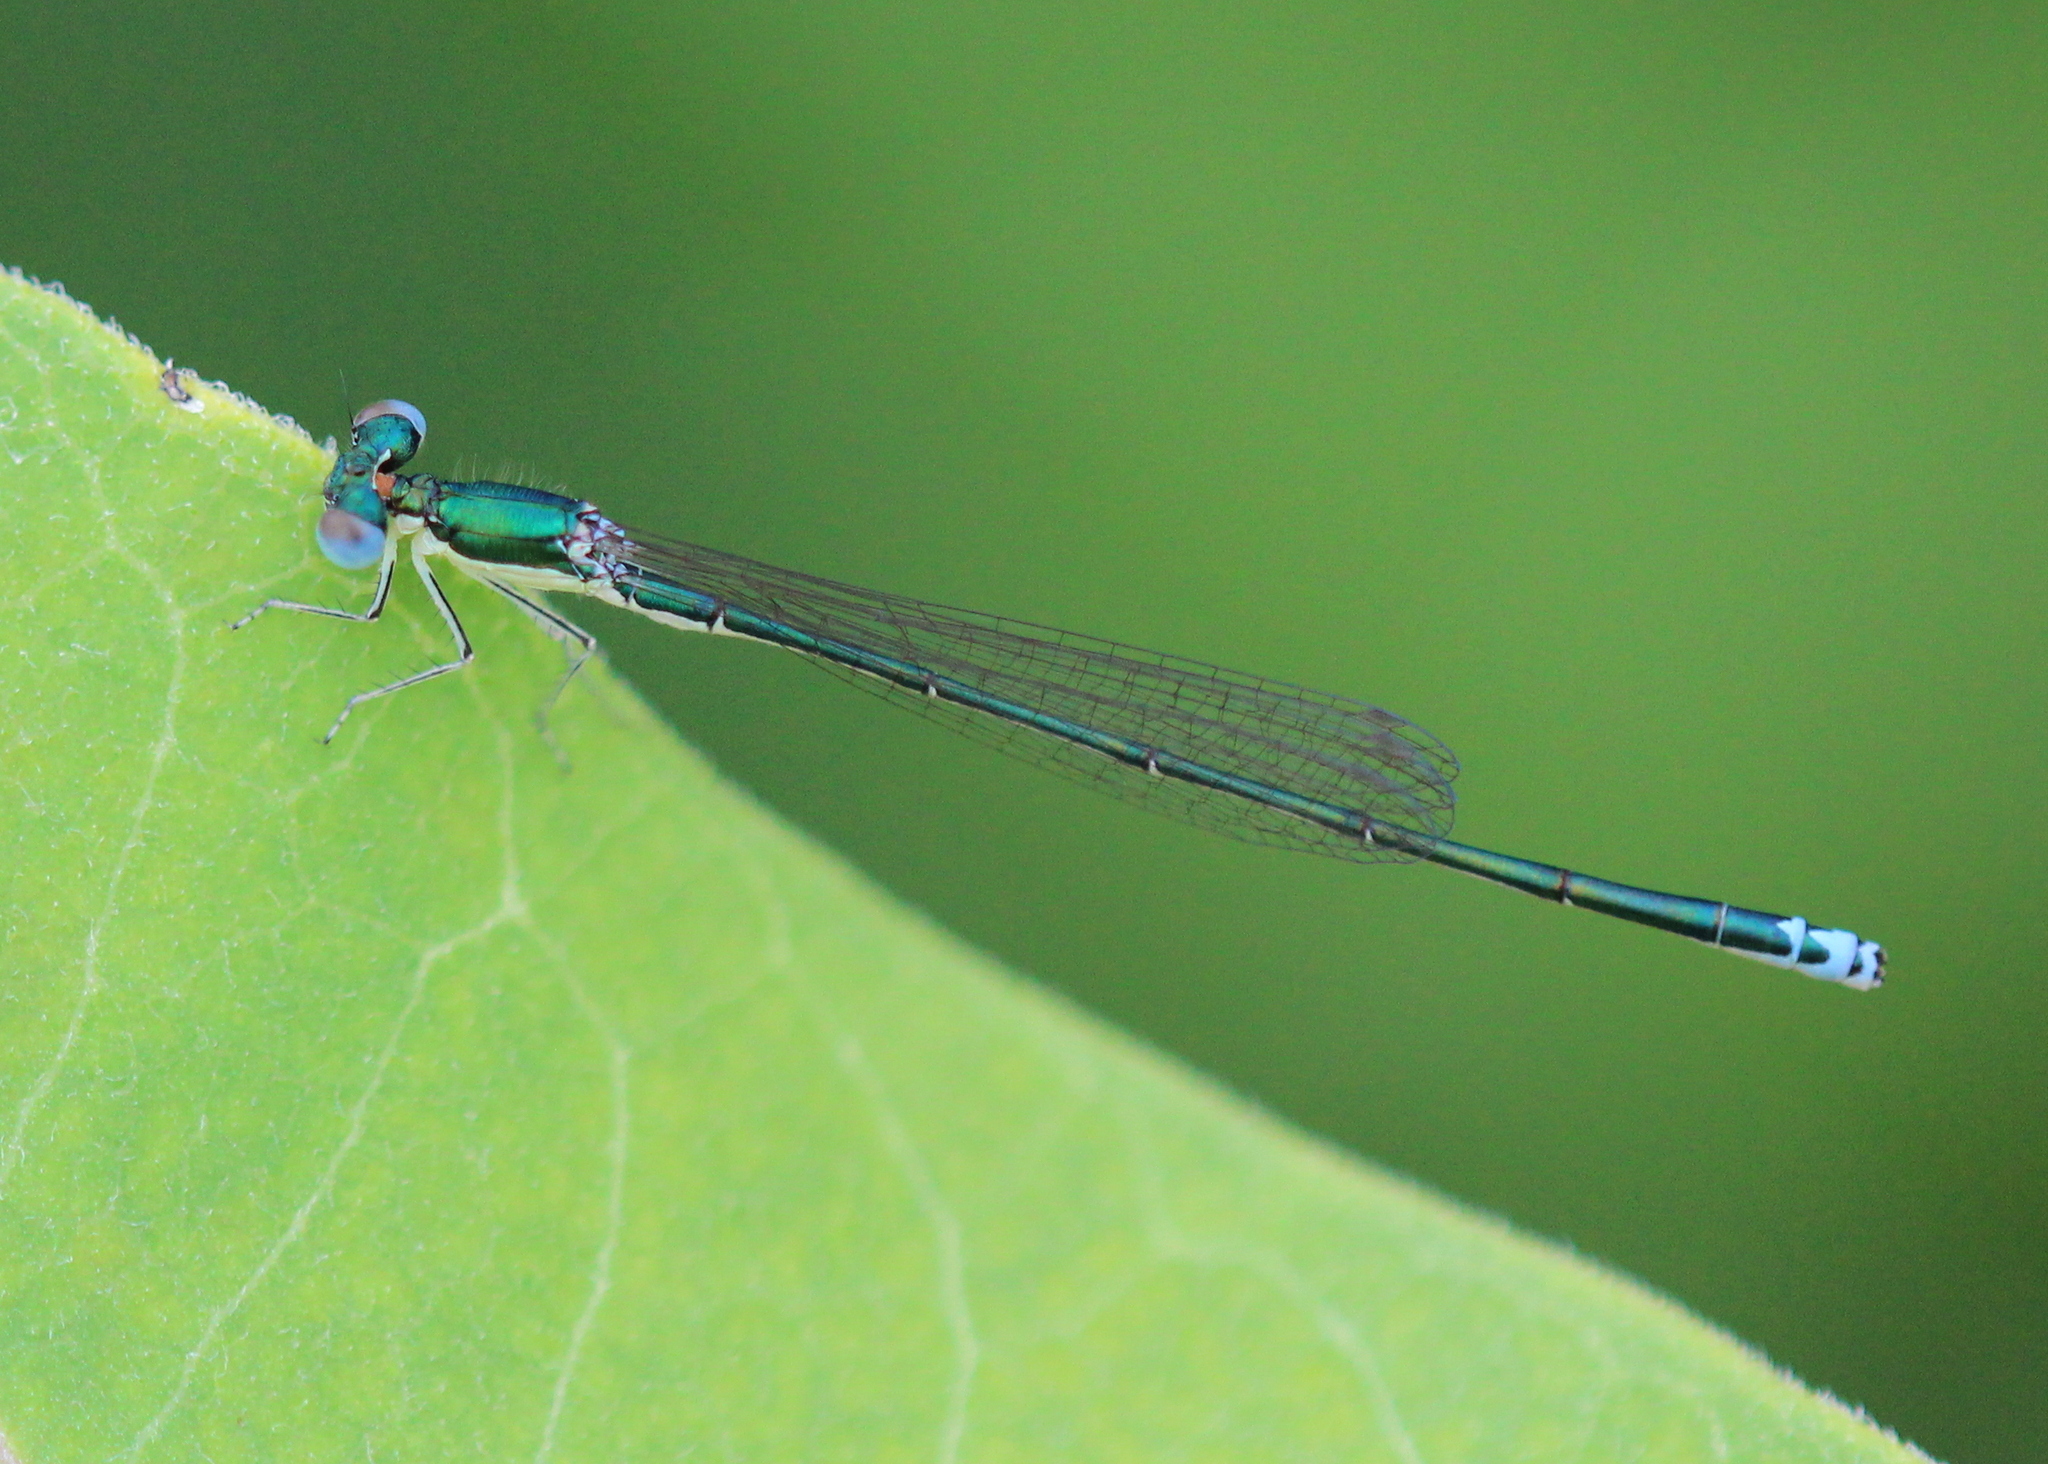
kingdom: Animalia
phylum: Arthropoda
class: Insecta
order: Odonata
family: Coenagrionidae
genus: Nehalennia
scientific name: Nehalennia irene
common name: Sedge sprite
